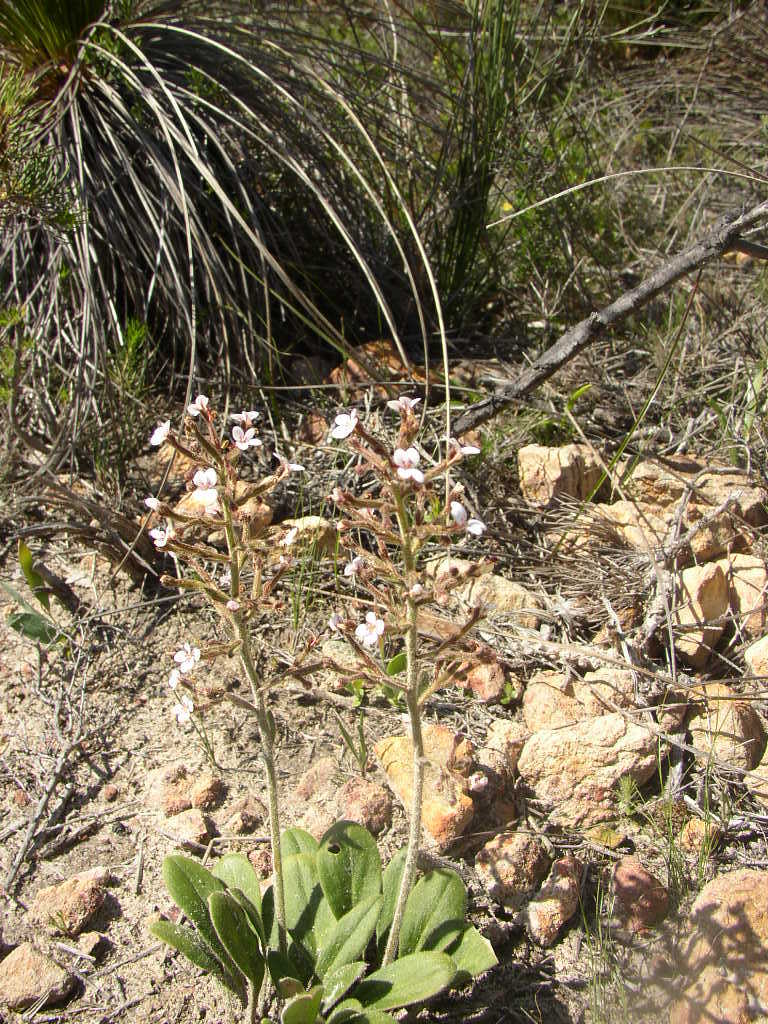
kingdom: Plantae
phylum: Tracheophyta
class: Magnoliopsida
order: Asterales
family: Stylidiaceae
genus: Stylidium
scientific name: Stylidium pycnostachyum
